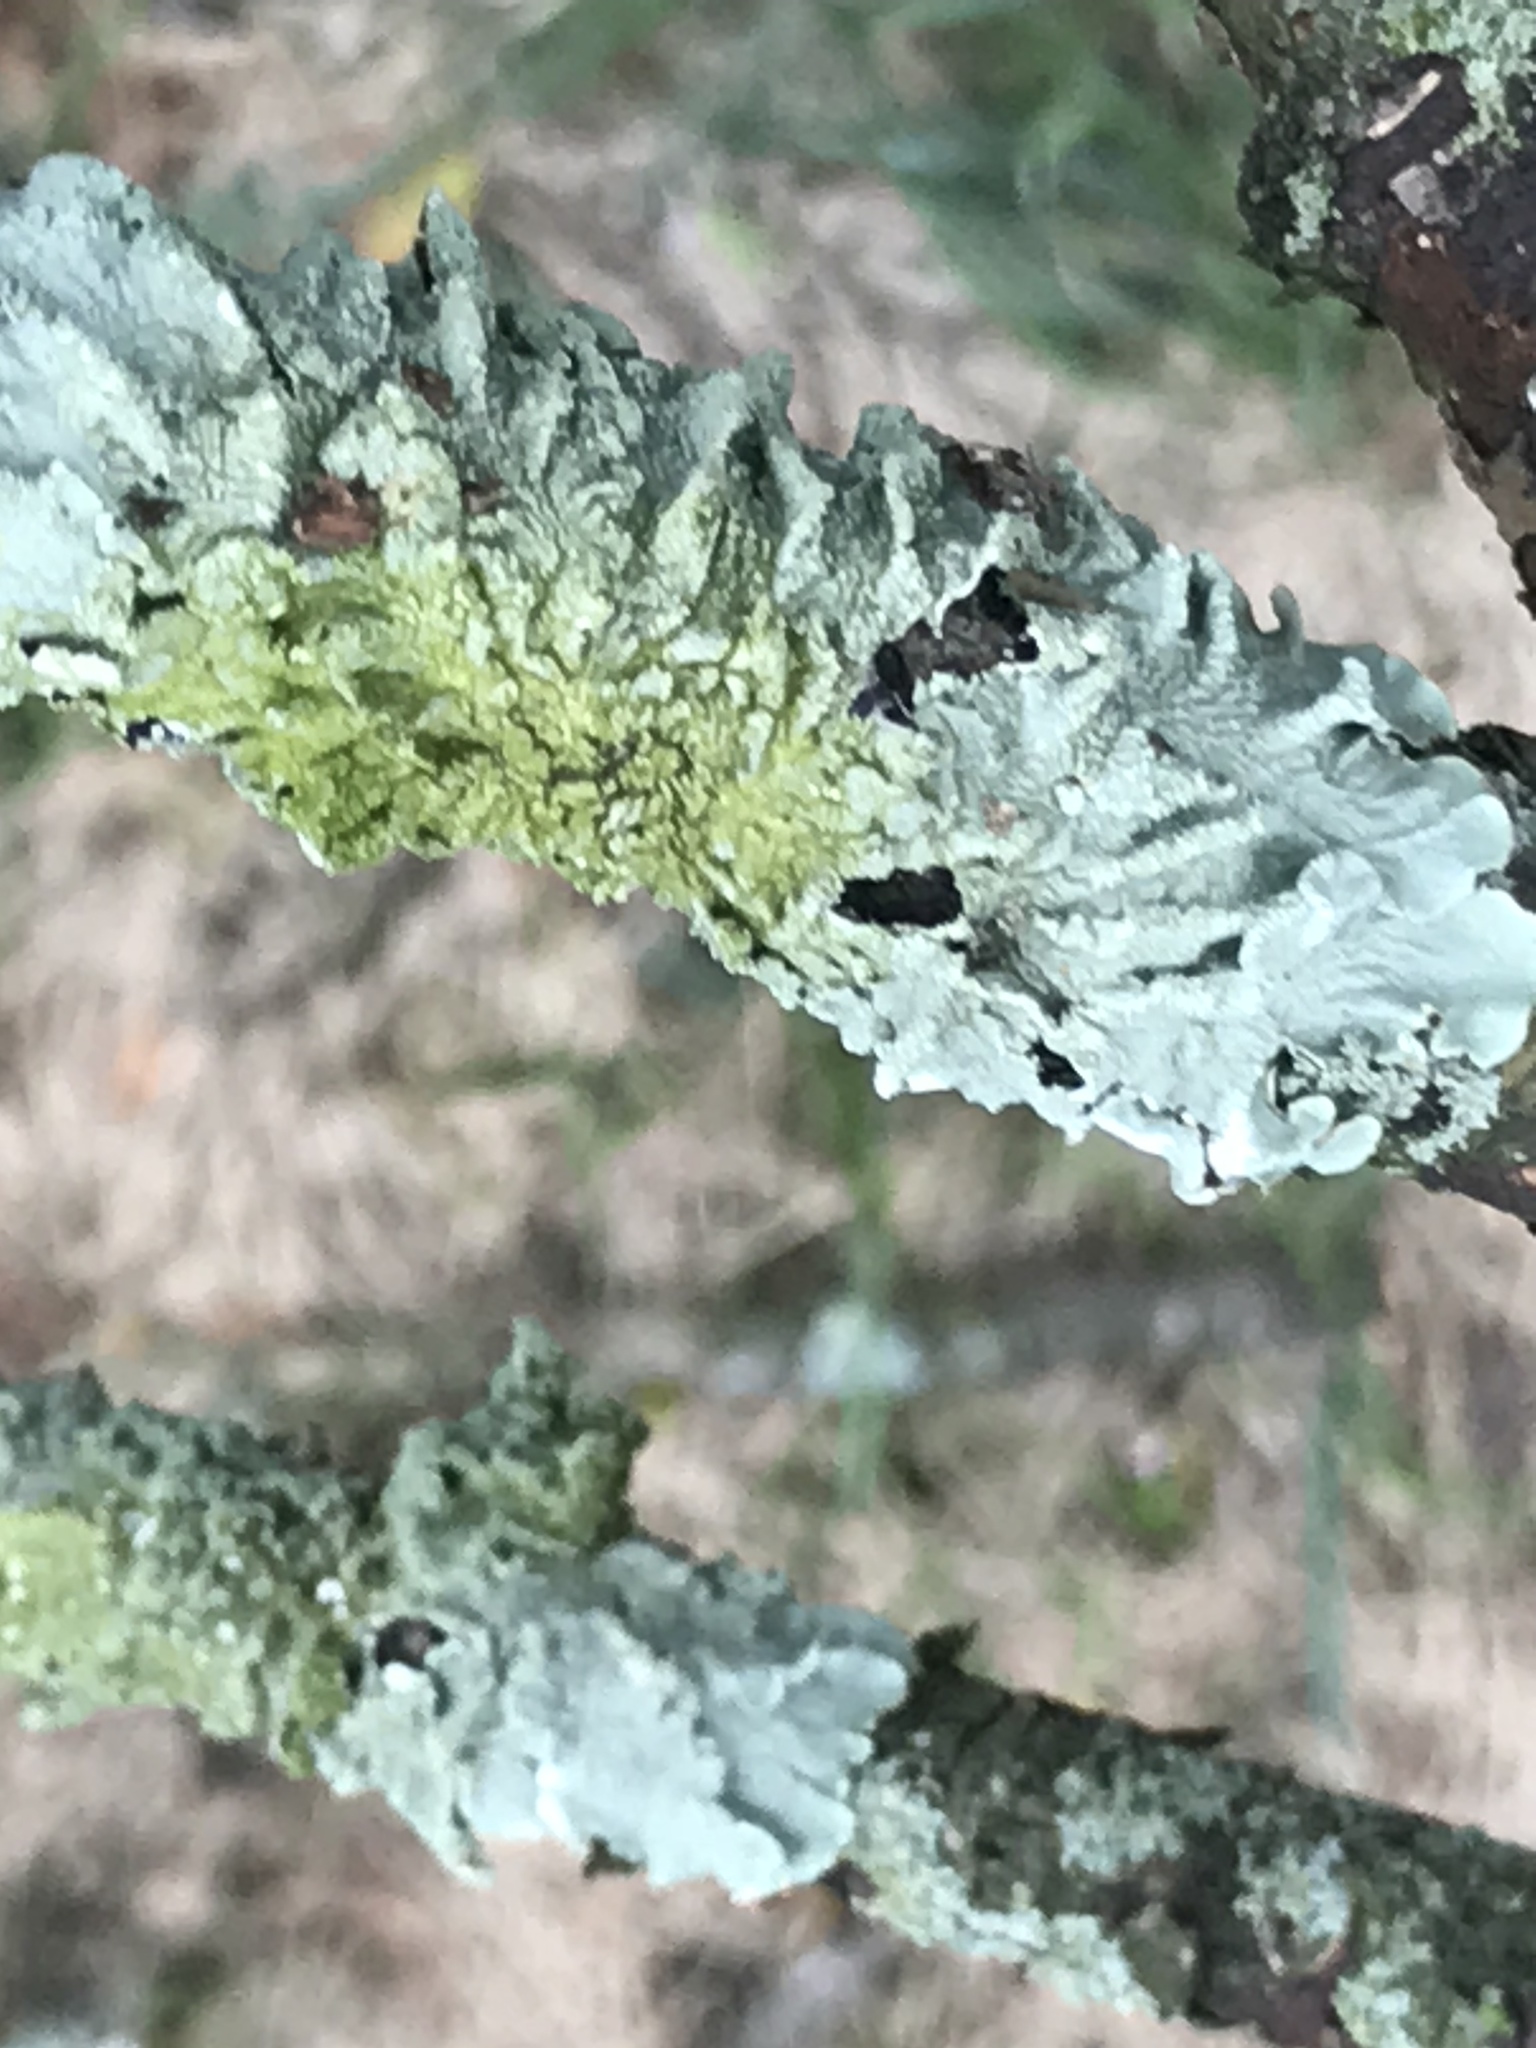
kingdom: Fungi
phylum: Ascomycota
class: Lecanoromycetes
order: Lecanorales
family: Parmeliaceae
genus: Flavoparmelia
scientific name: Flavoparmelia caperata
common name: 40-mile per hour lichen
